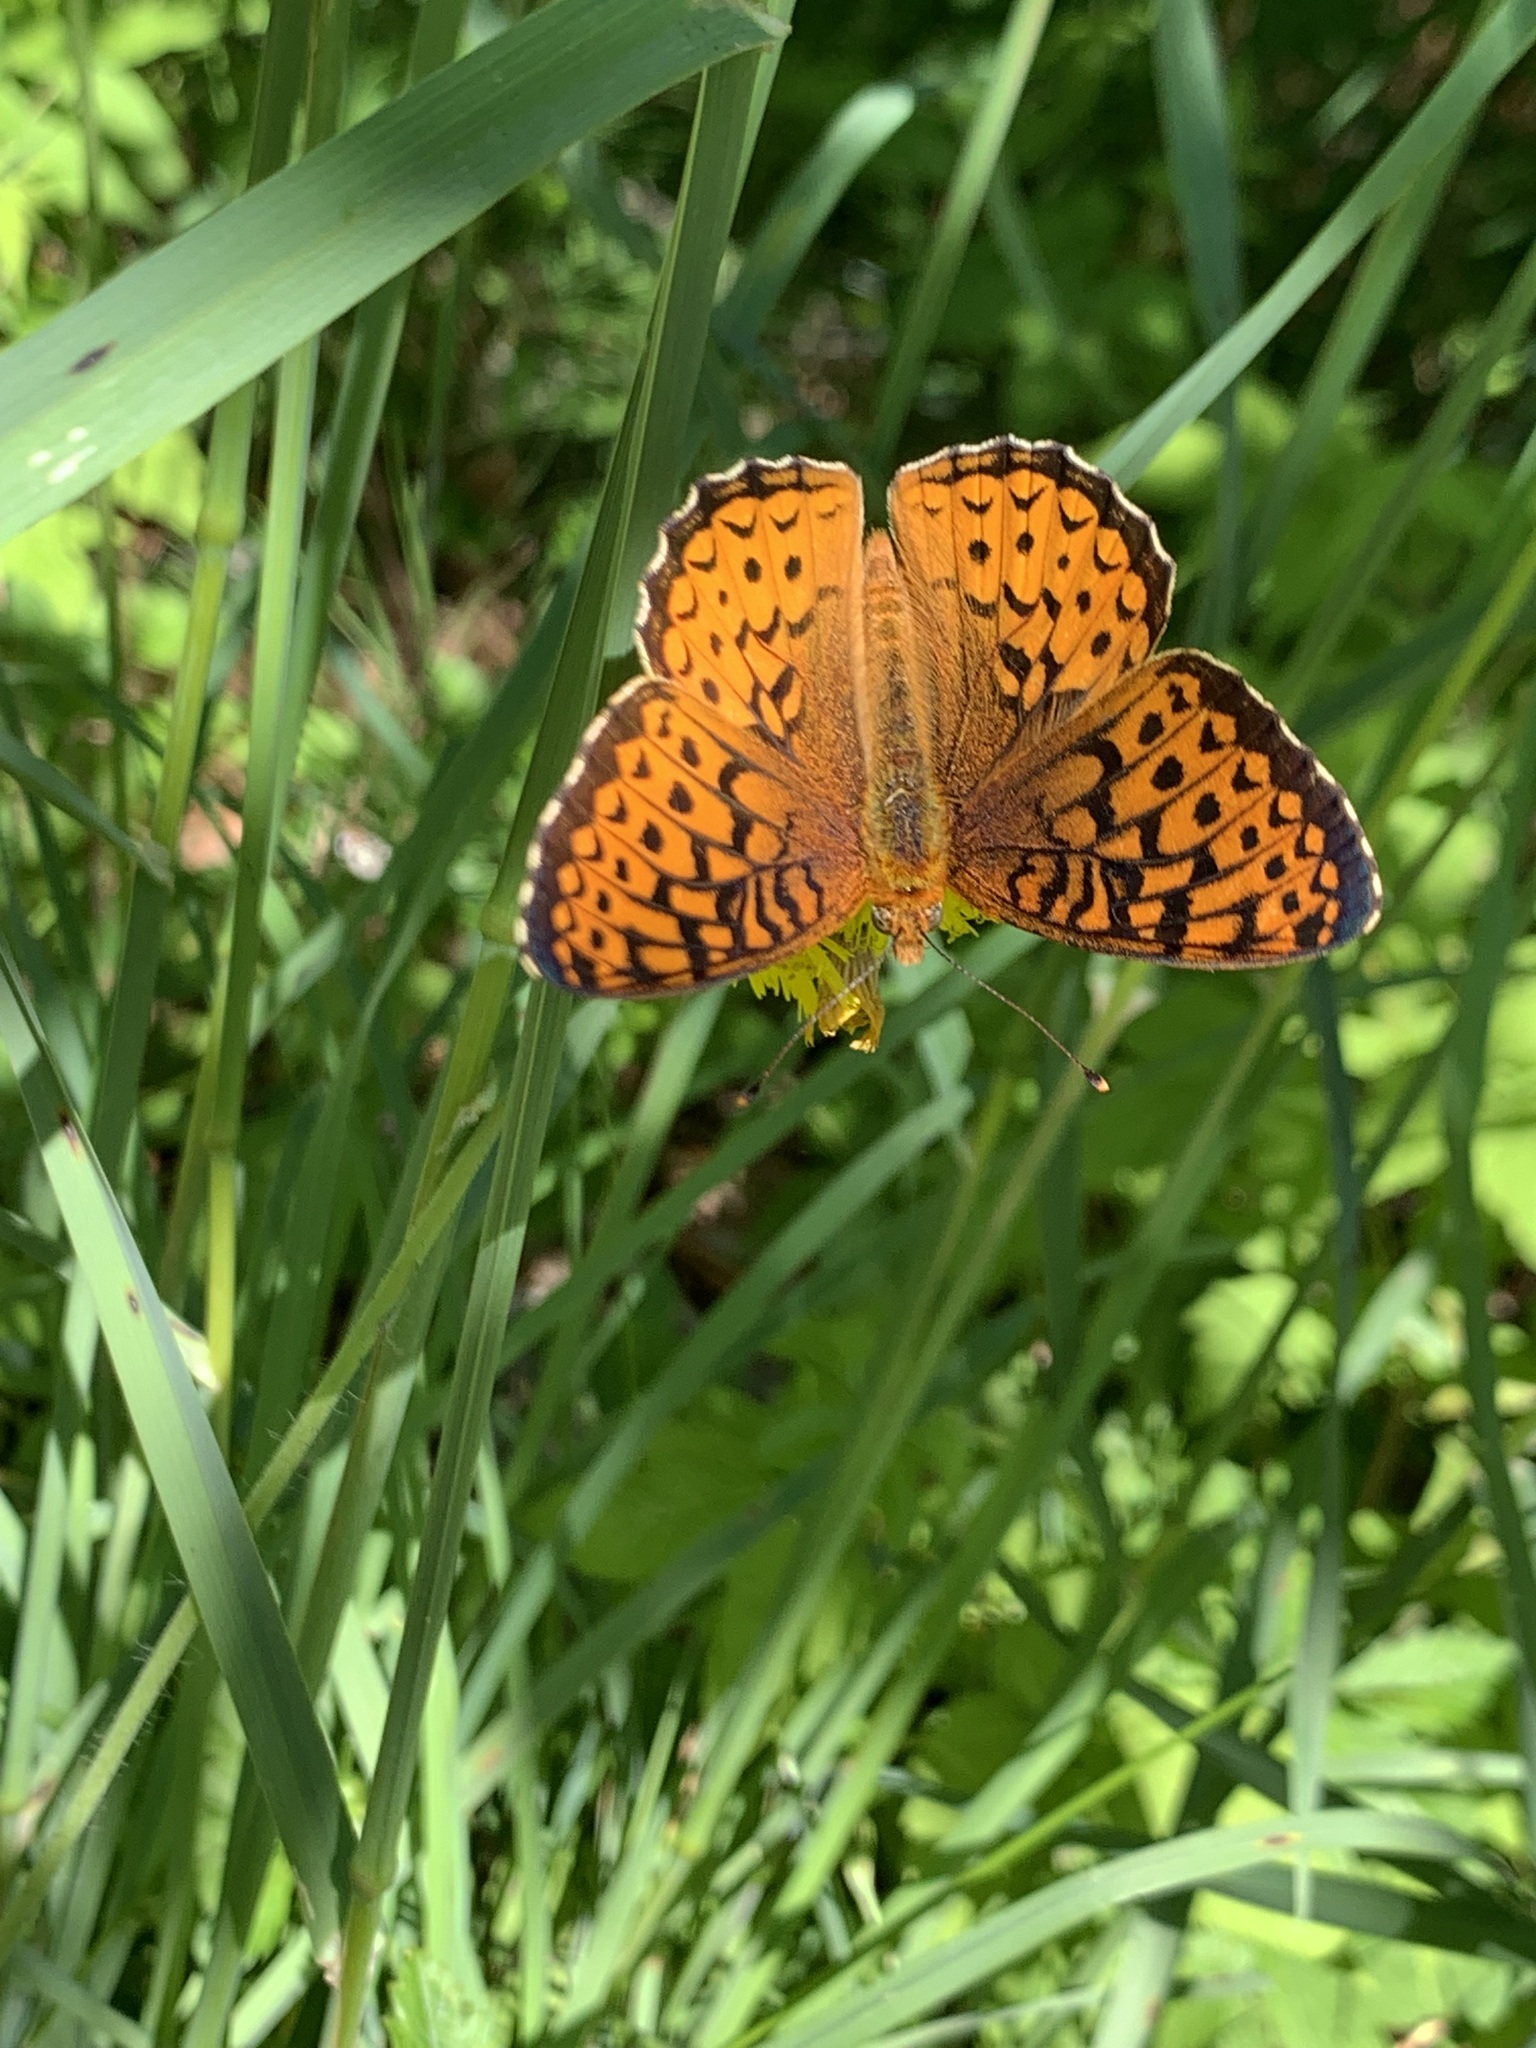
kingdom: Animalia
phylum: Arthropoda
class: Insecta
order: Lepidoptera
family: Nymphalidae
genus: Speyeria
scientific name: Speyeria atlantis
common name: Atlantis fritillary
